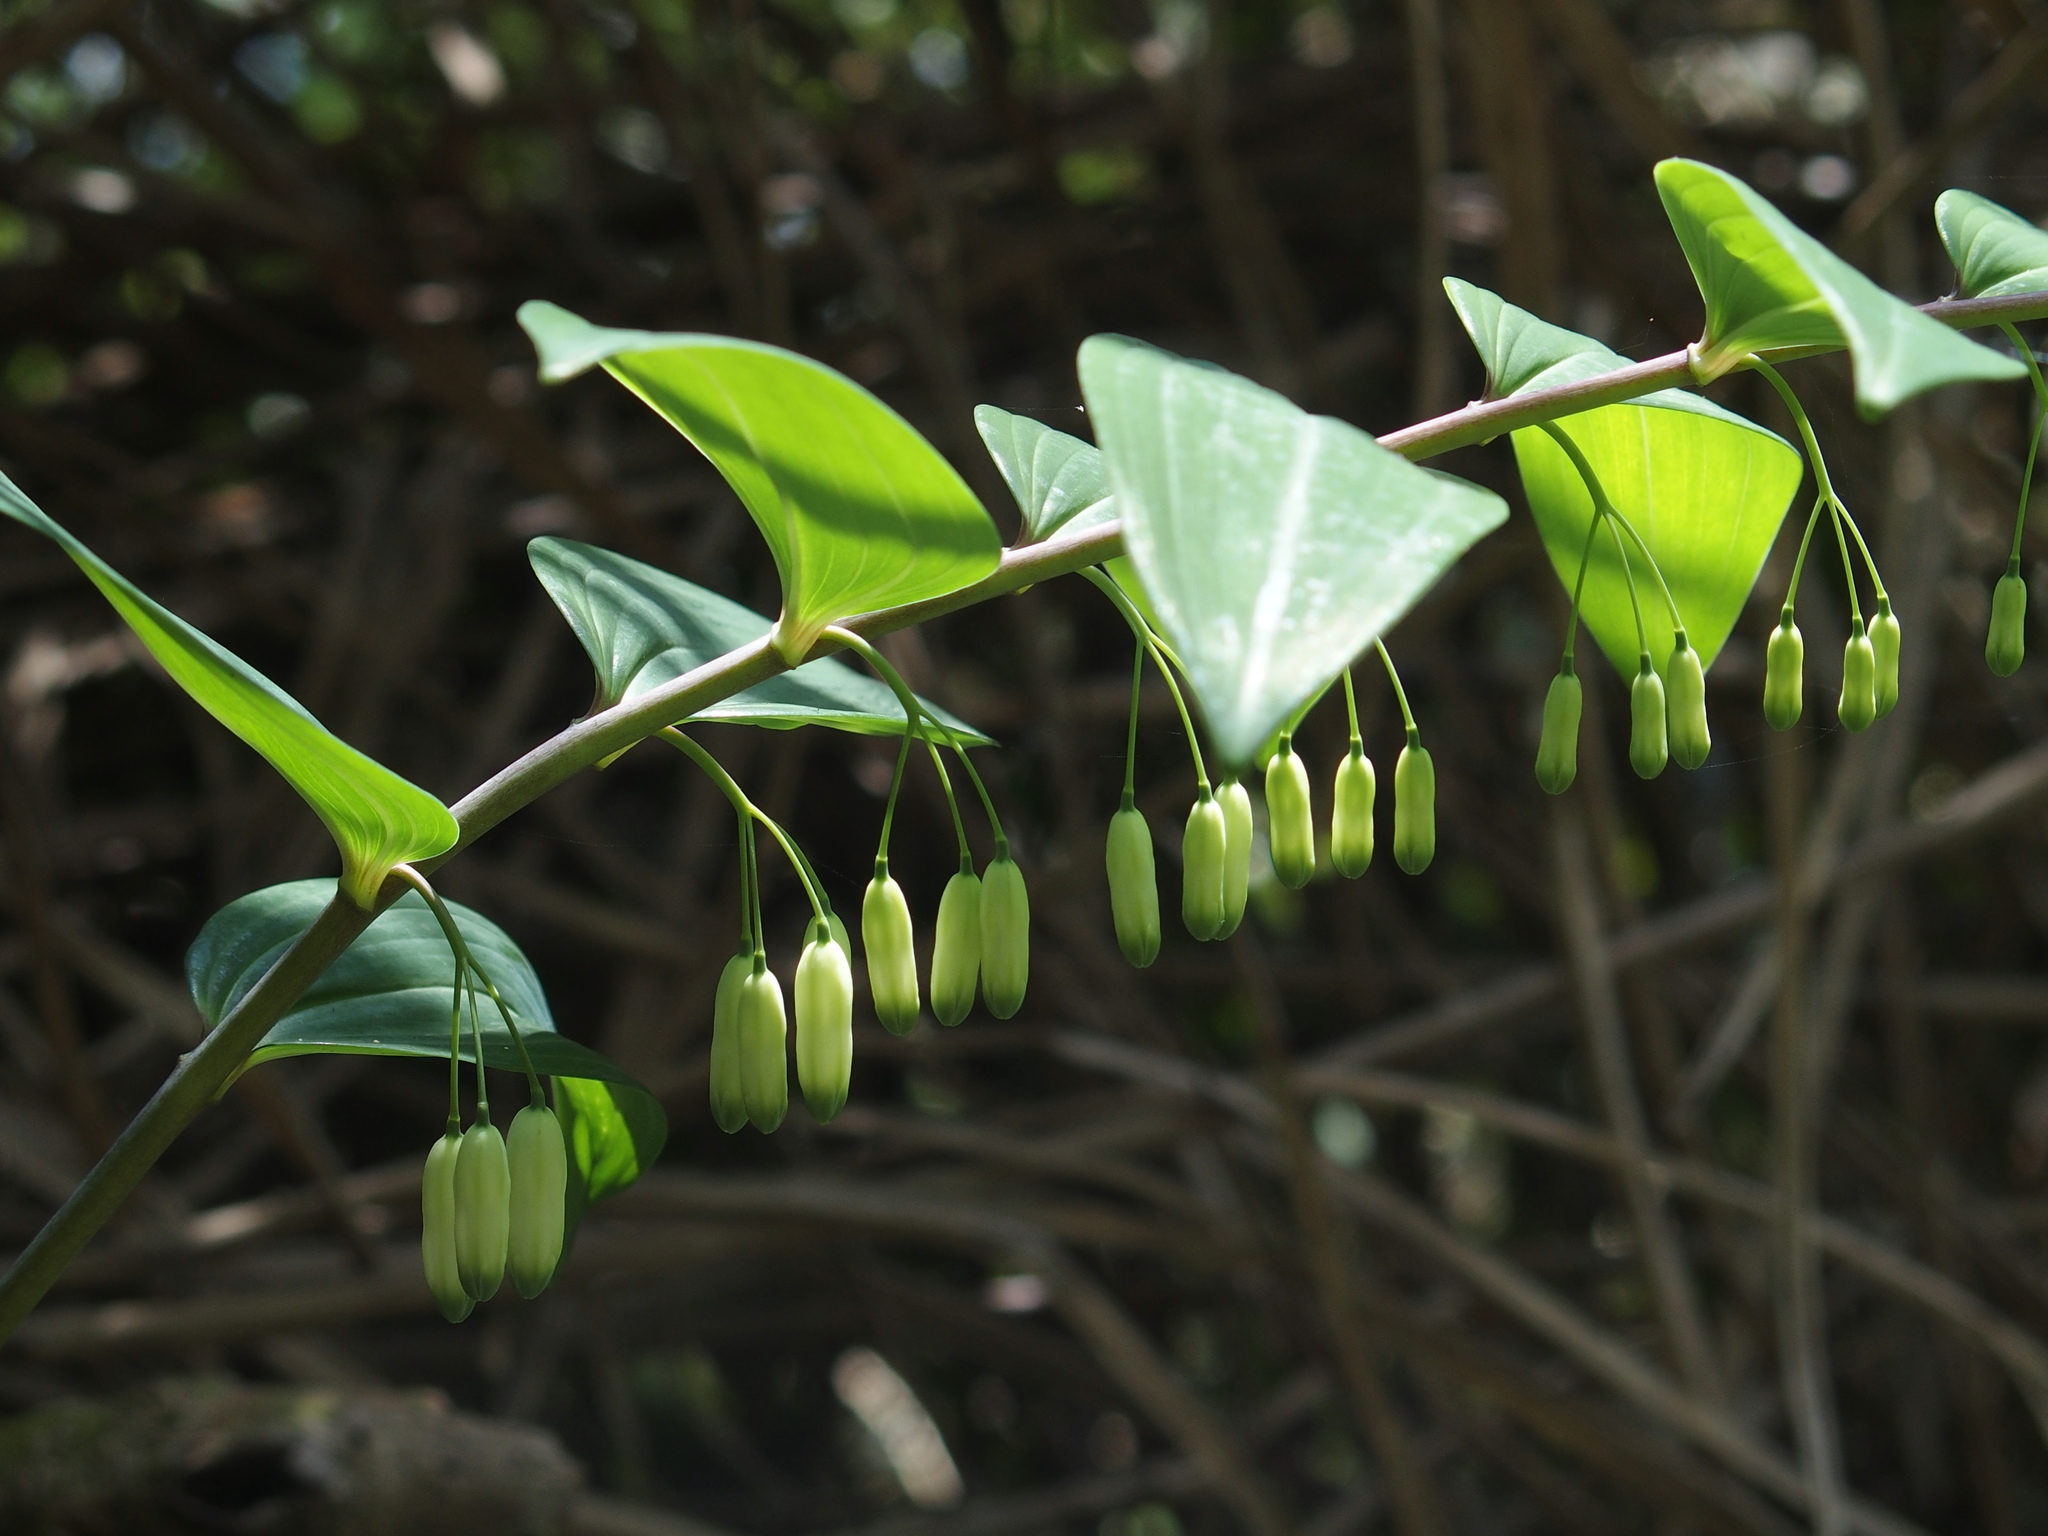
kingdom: Plantae
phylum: Tracheophyta
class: Liliopsida
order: Asparagales
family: Asparagaceae
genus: Polygonatum
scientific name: Polygonatum arisanense
